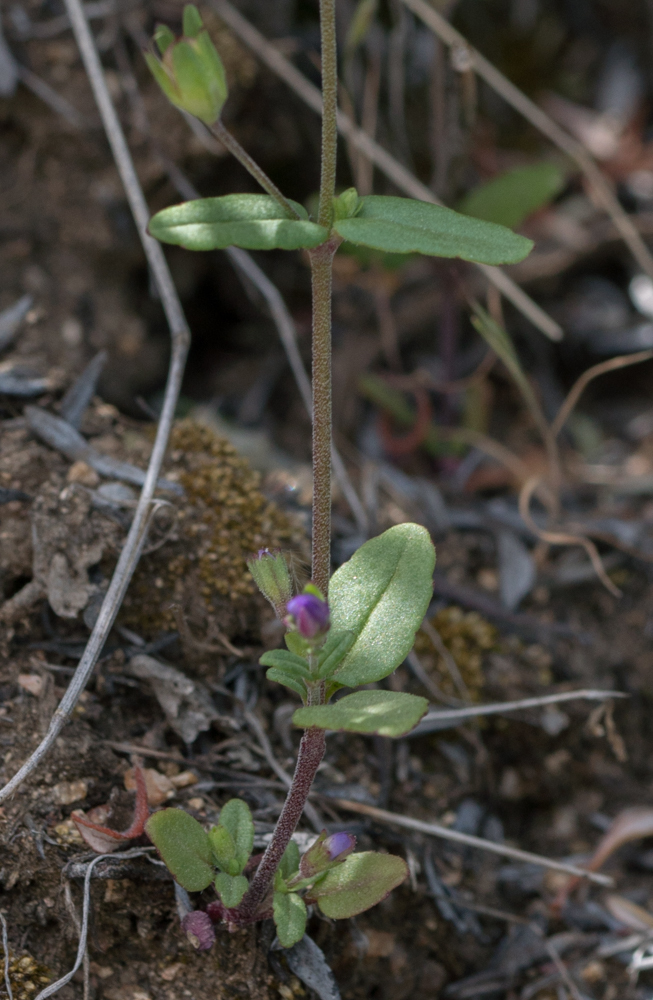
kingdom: Plantae
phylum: Tracheophyta
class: Magnoliopsida
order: Lamiales
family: Plantaginaceae
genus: Collinsia
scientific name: Collinsia callosa
